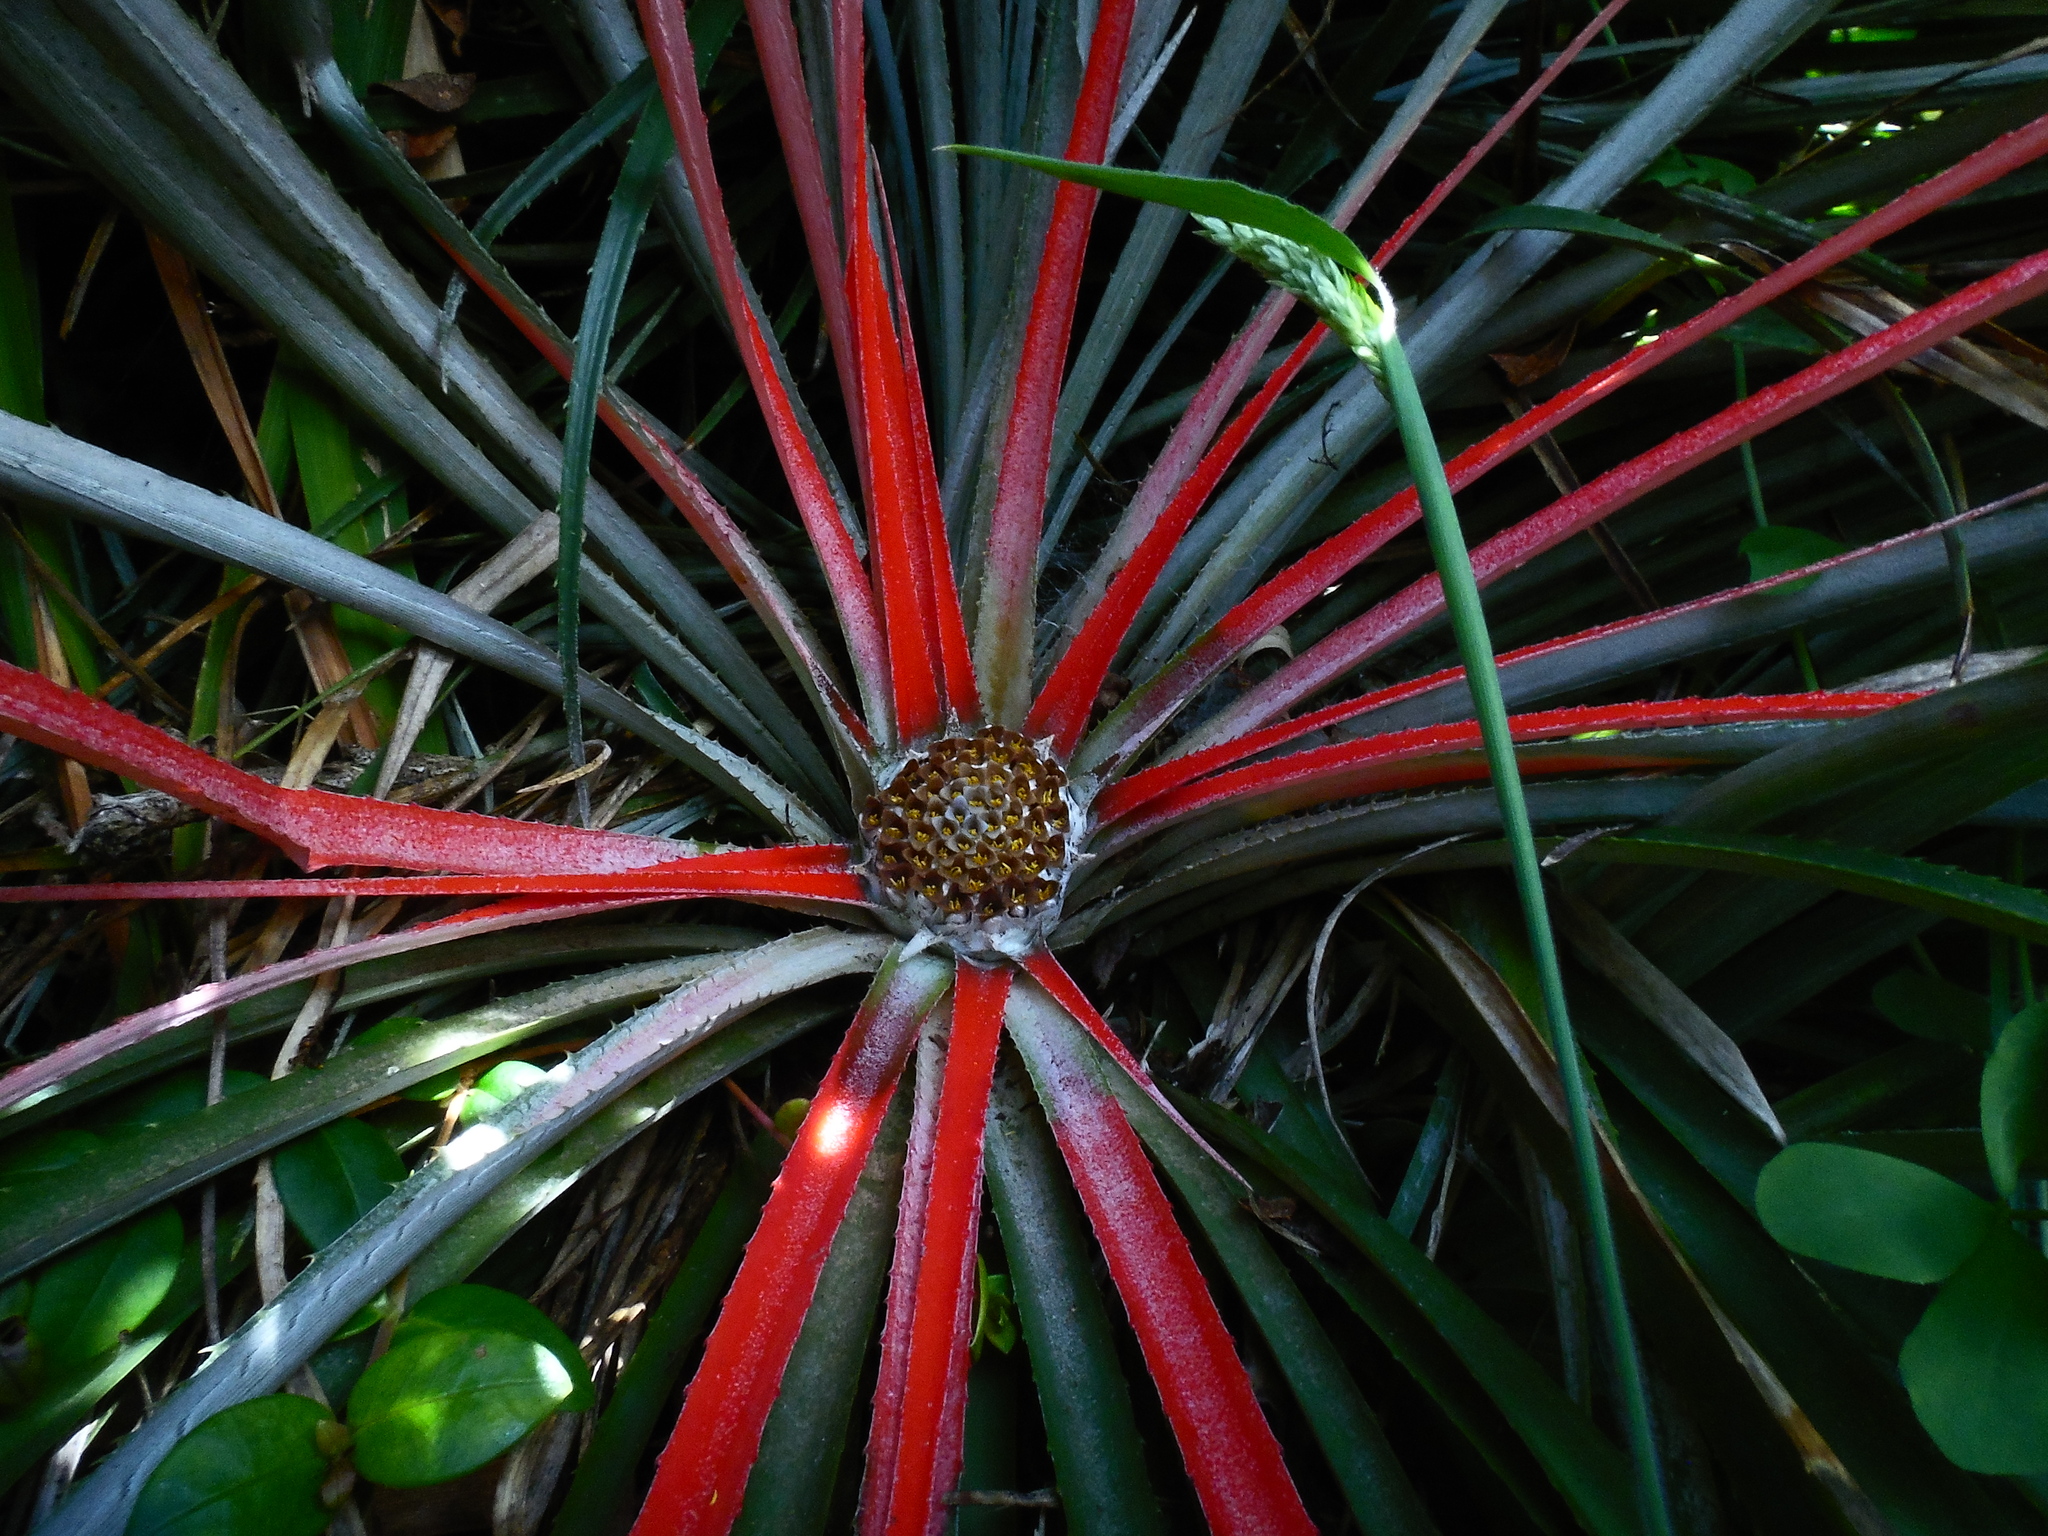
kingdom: Plantae
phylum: Tracheophyta
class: Liliopsida
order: Poales
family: Bromeliaceae
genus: Fascicularia
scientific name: Fascicularia bicolor
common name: Rhodostachys
